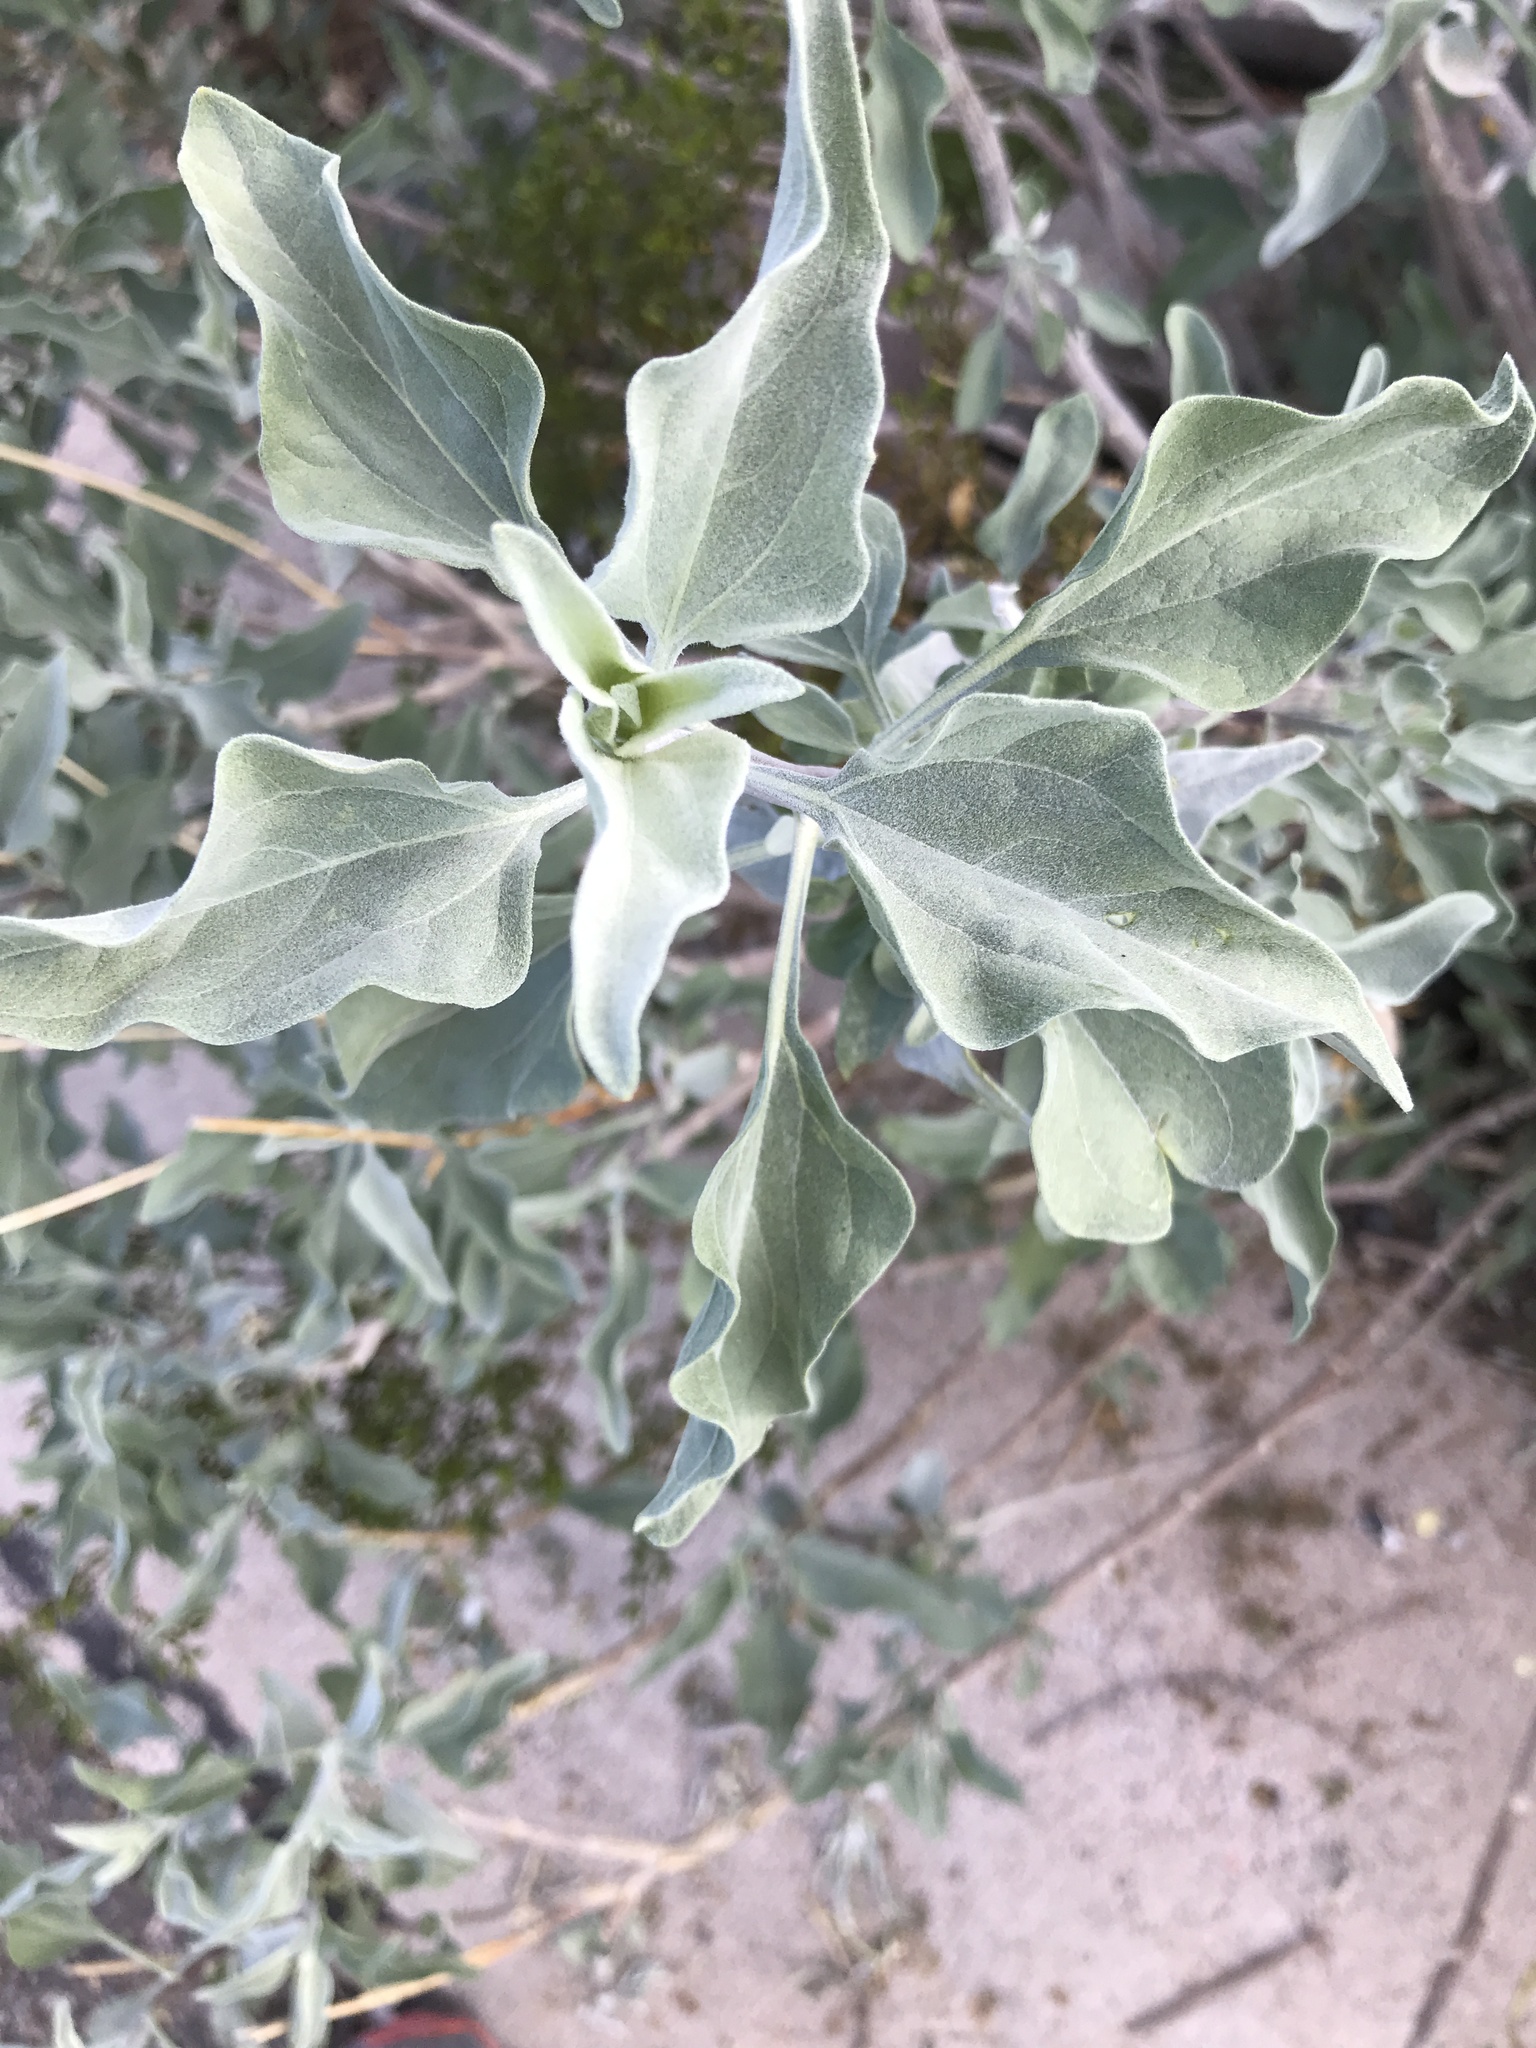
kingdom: Plantae
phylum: Tracheophyta
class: Magnoliopsida
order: Asterales
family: Asteraceae
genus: Encelia
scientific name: Encelia farinosa
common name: Brittlebush
